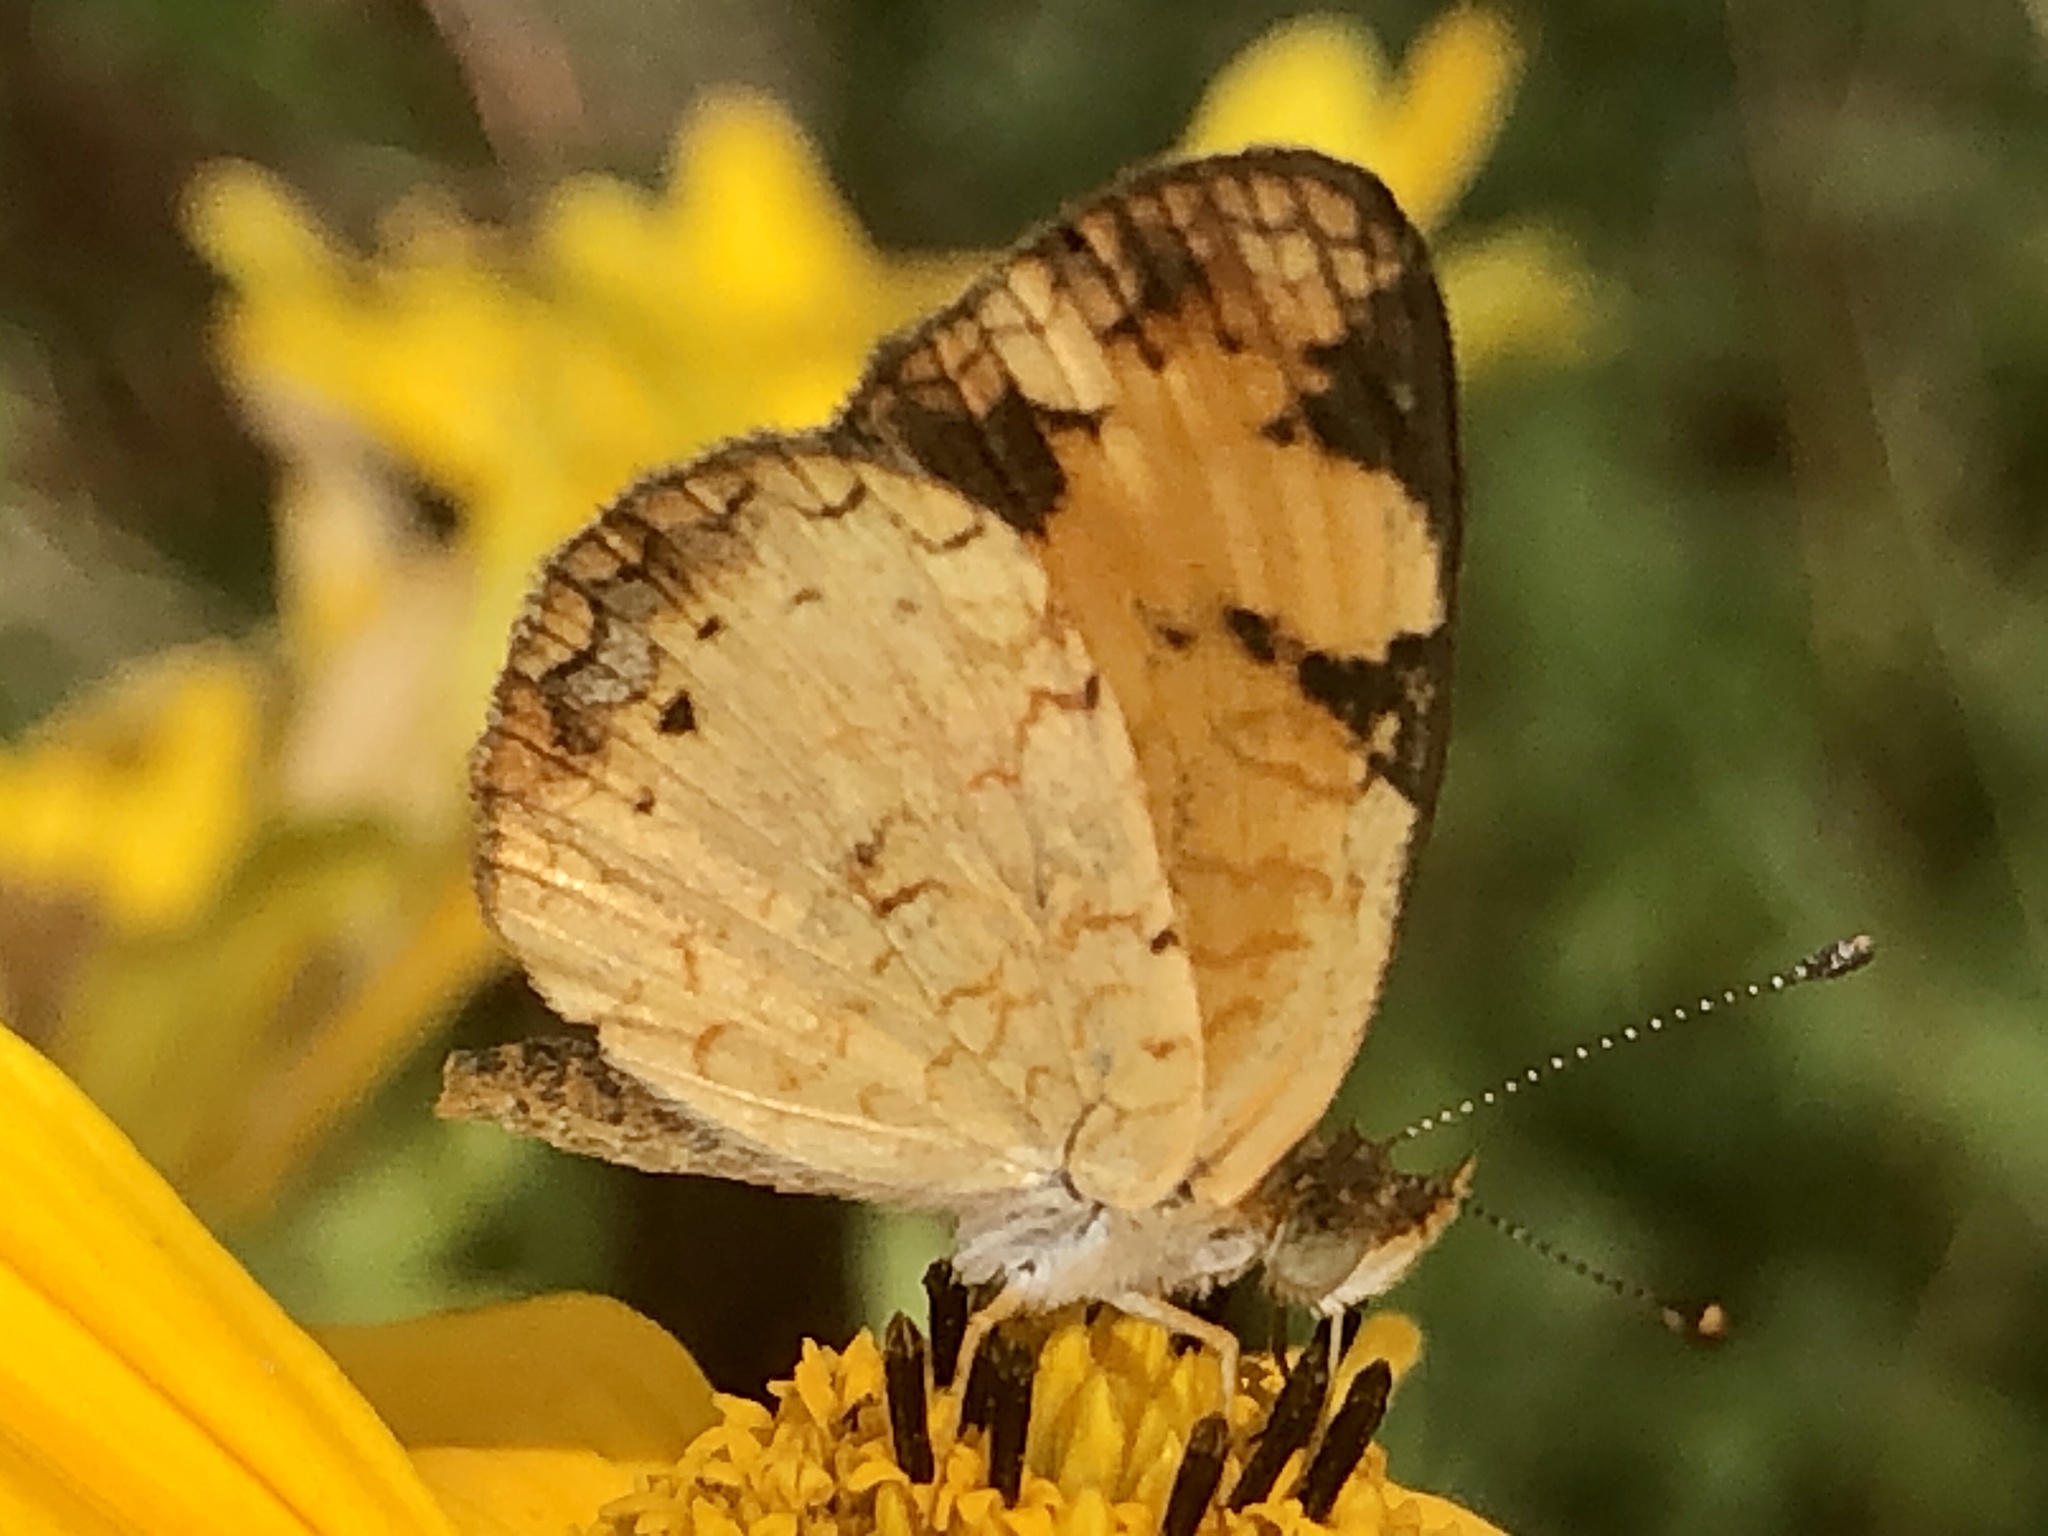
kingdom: Animalia
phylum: Arthropoda
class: Insecta
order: Lepidoptera
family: Nymphalidae
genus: Phyciodes
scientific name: Phyciodes tharos
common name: Pearl crescent
